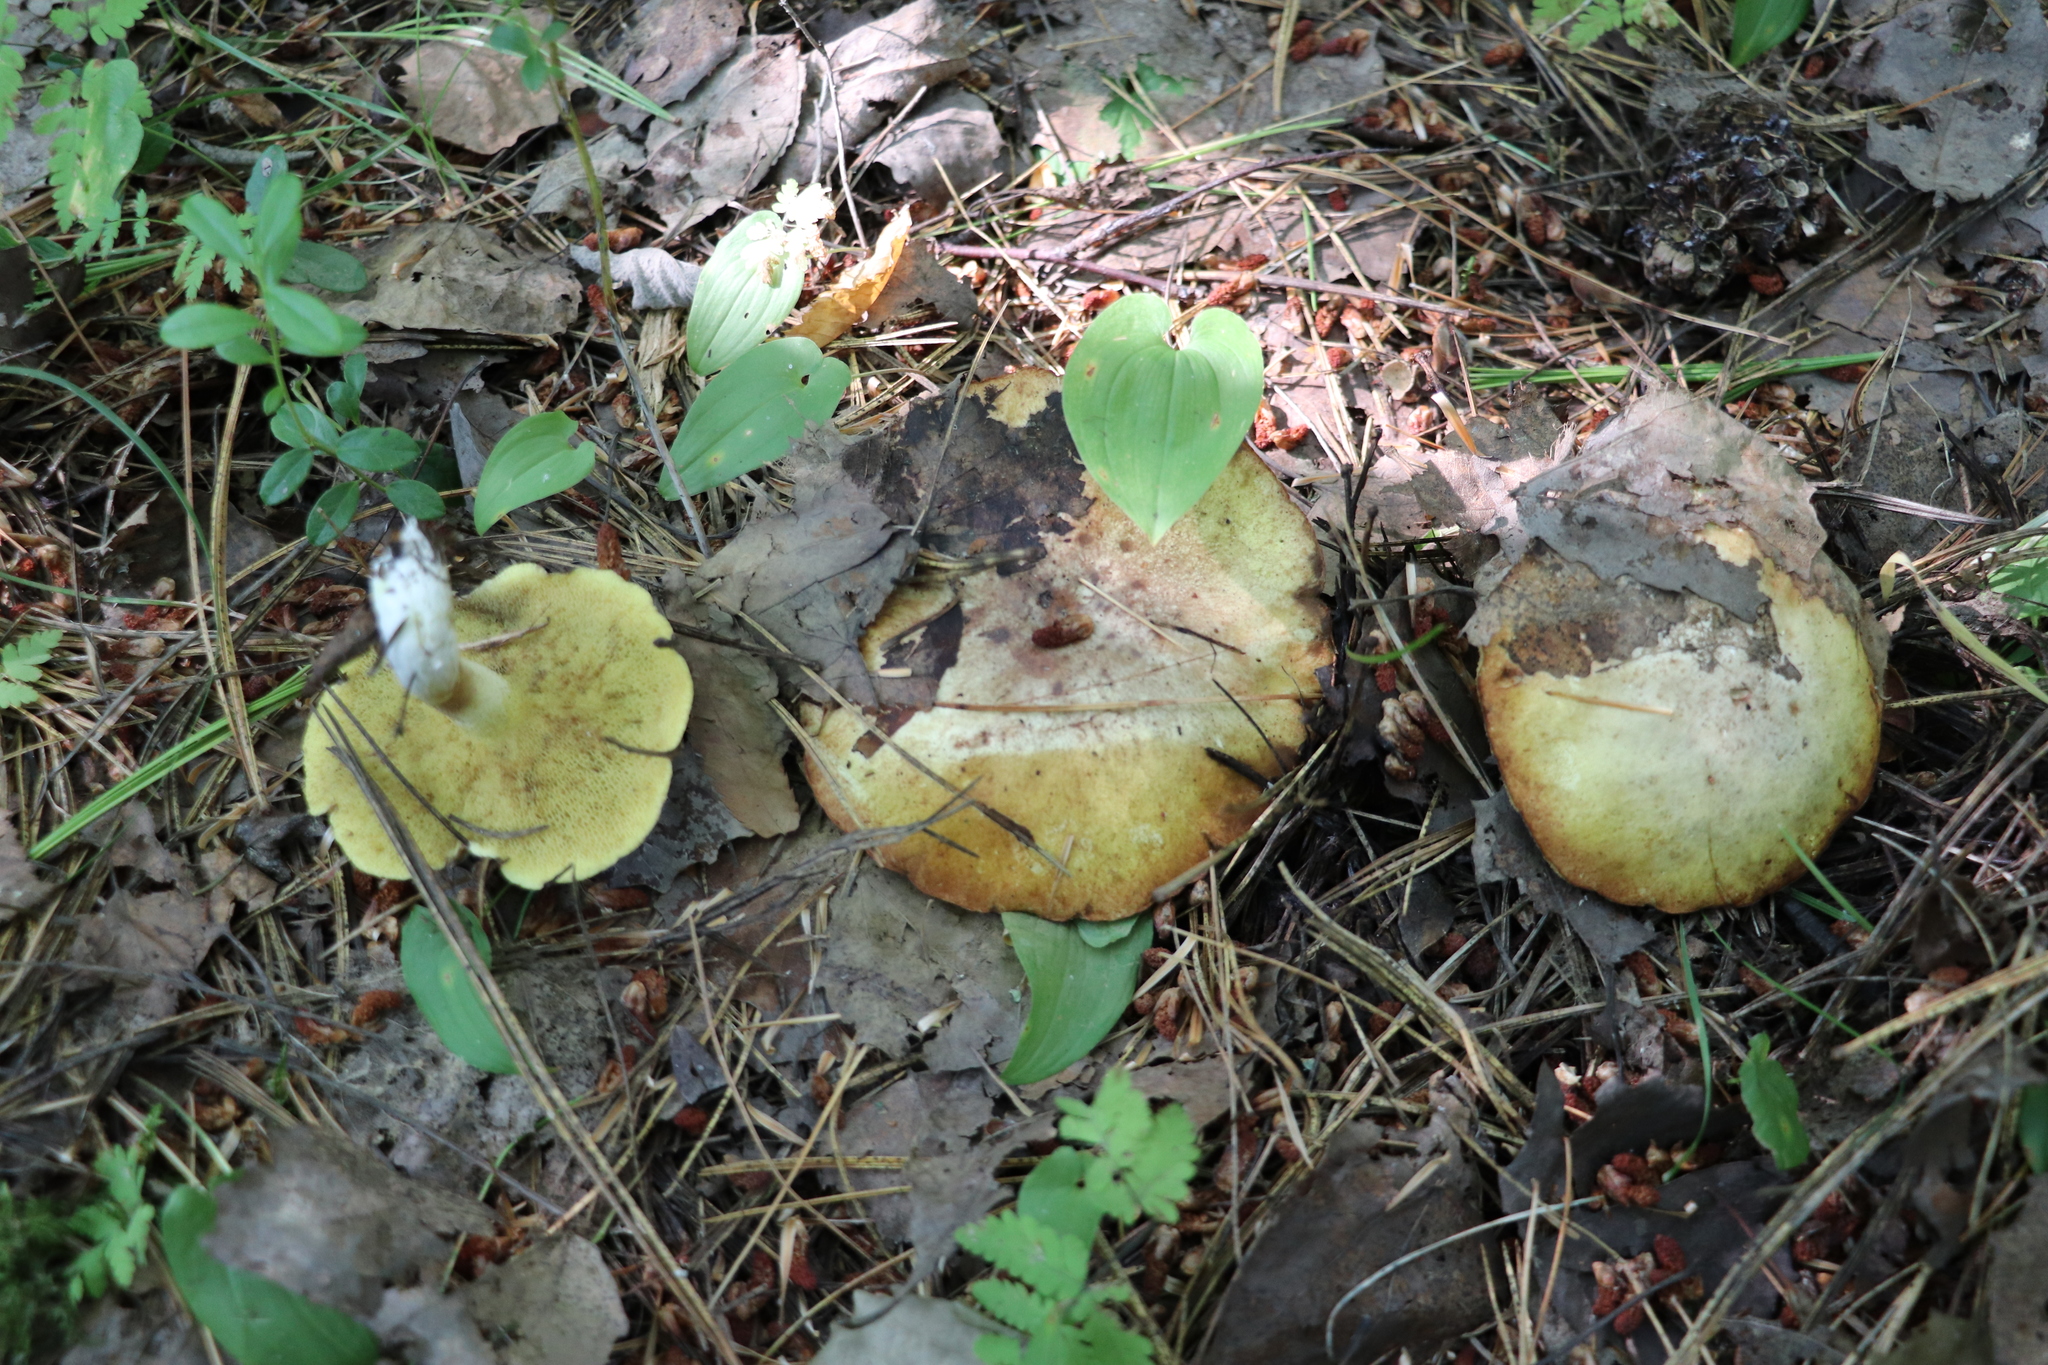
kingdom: Fungi
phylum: Basidiomycota
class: Agaricomycetes
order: Boletales
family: Suillaceae
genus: Suillus
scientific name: Suillus placidus
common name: Slippery white bolete
